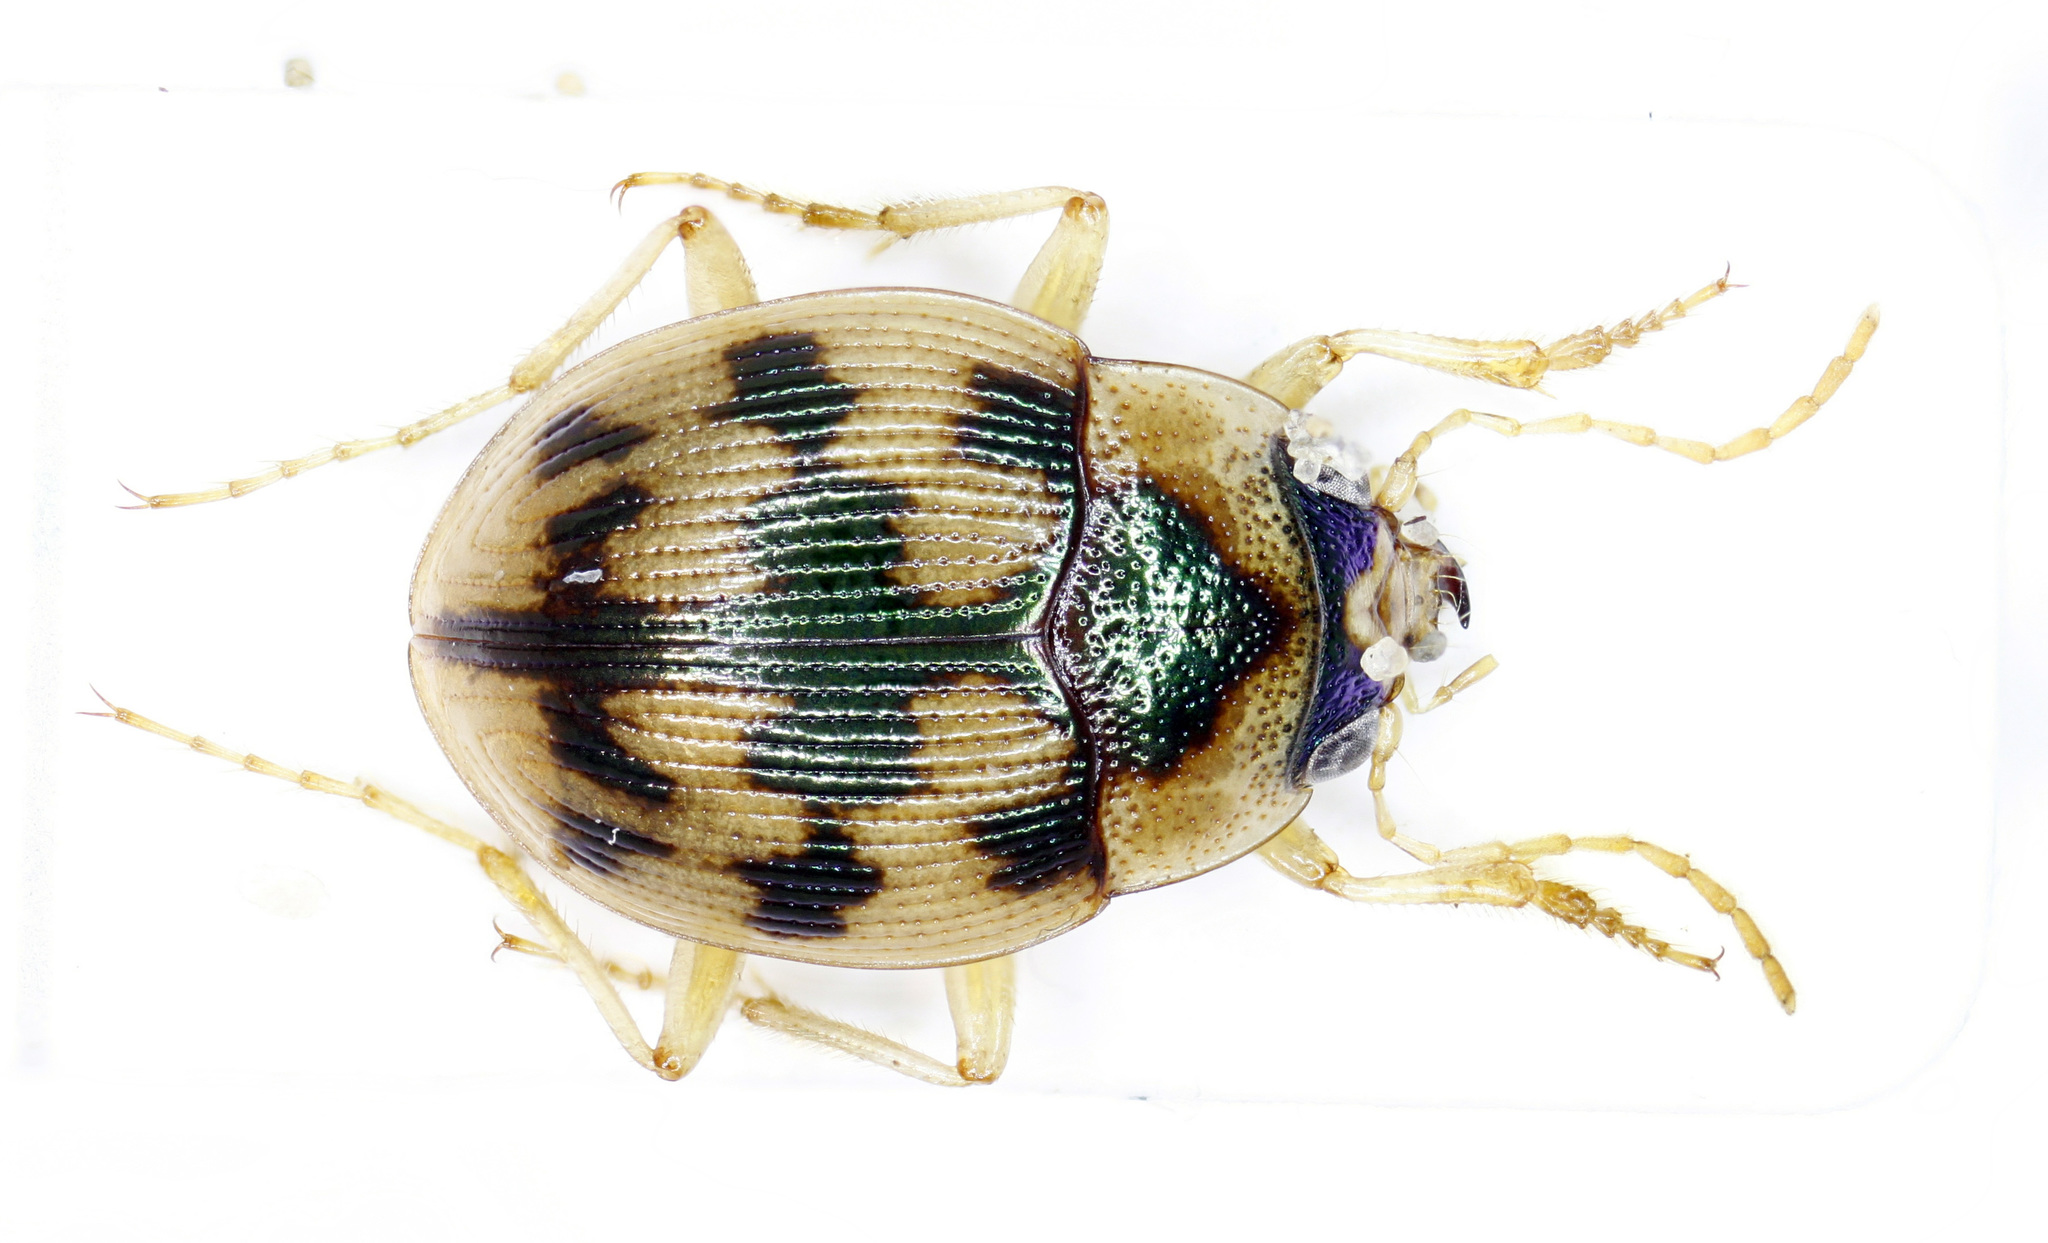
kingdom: Animalia
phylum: Arthropoda
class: Insecta
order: Coleoptera
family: Carabidae
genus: Omophron
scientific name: Omophron limbatum
